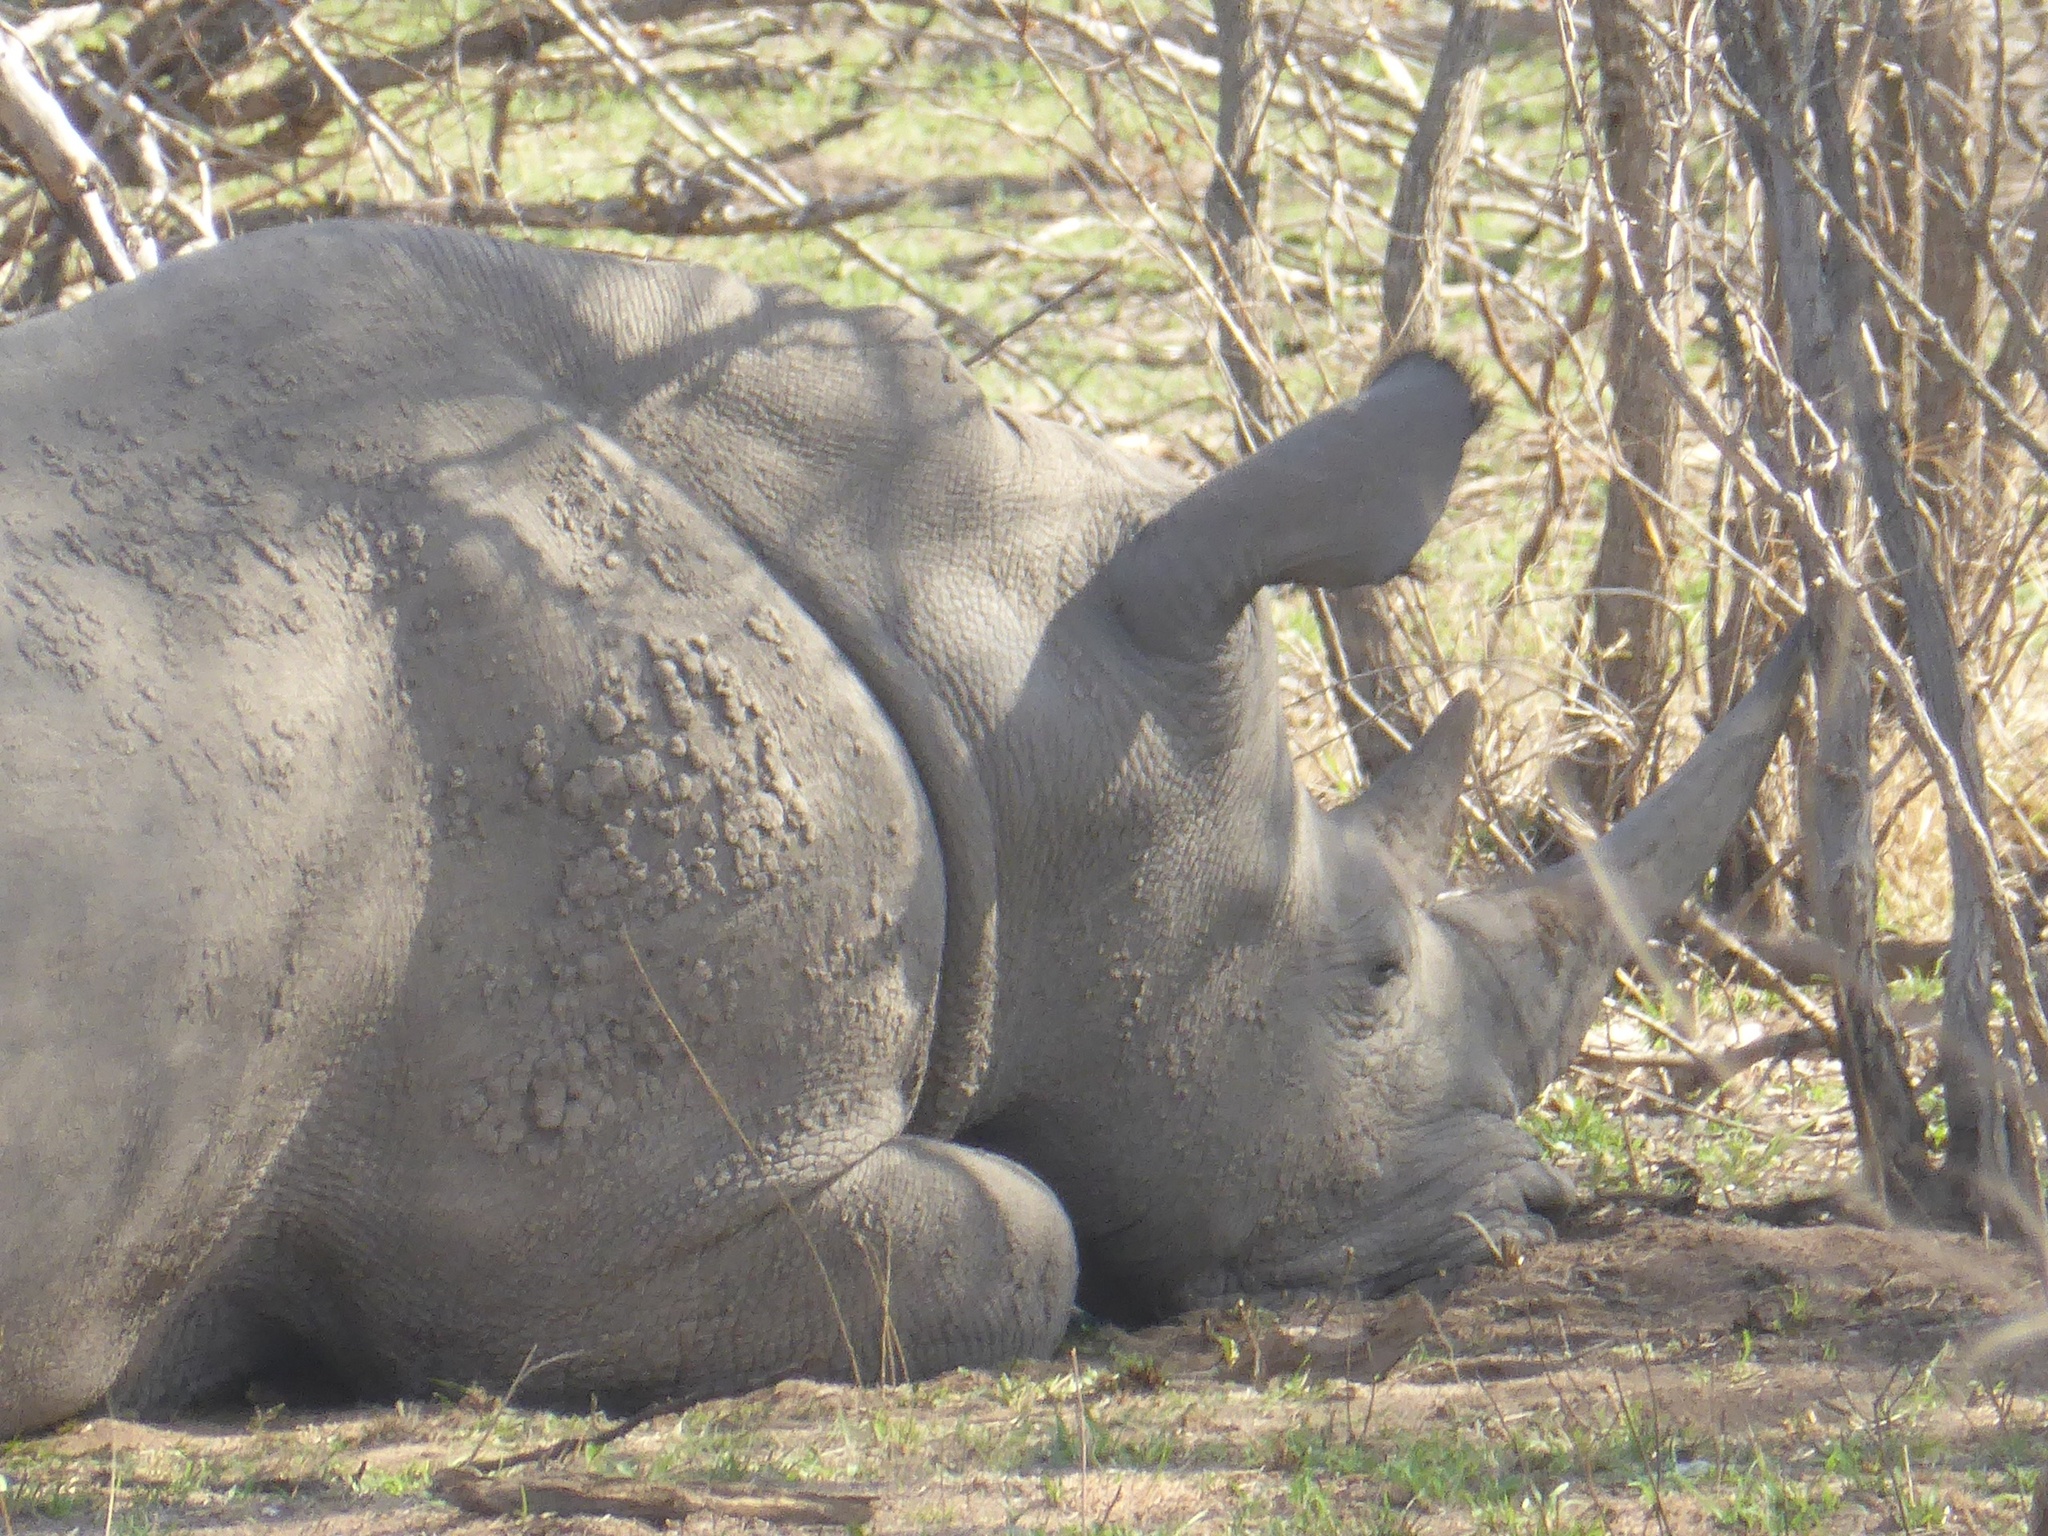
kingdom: Animalia
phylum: Chordata
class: Mammalia
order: Perissodactyla
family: Rhinocerotidae
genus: Ceratotherium
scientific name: Ceratotherium simum
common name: White rhinoceros
